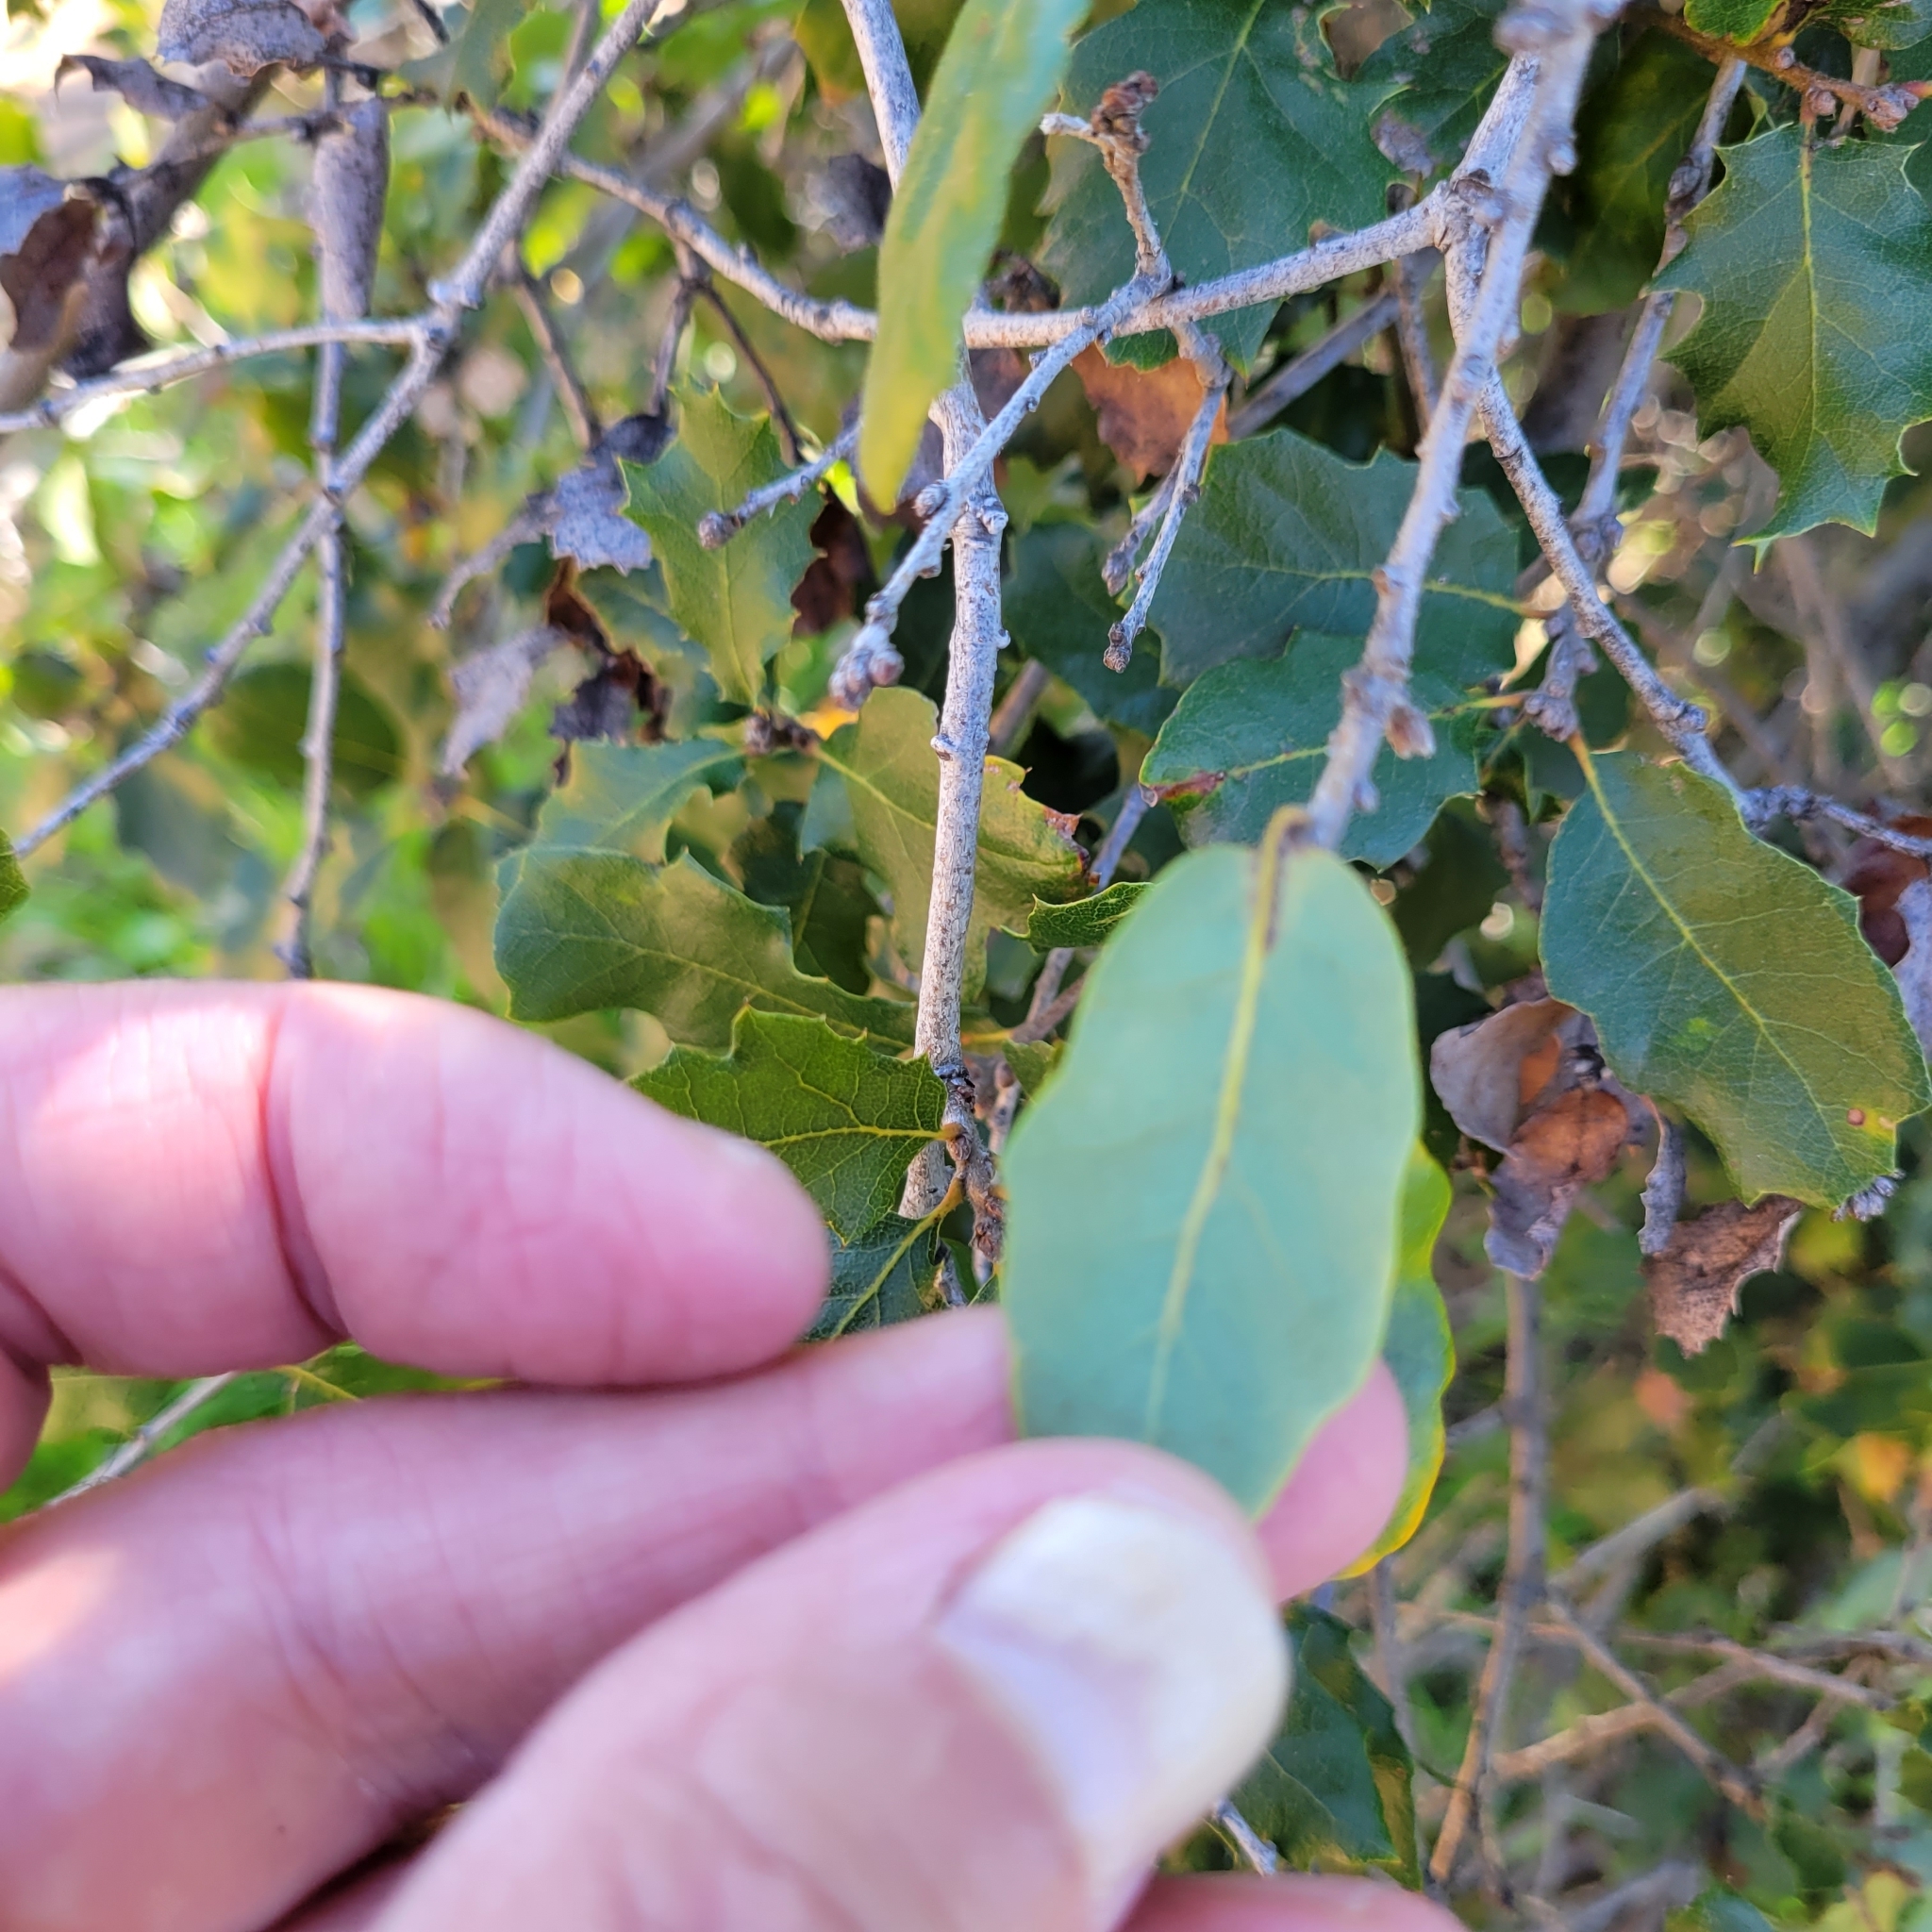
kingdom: Plantae
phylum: Tracheophyta
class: Magnoliopsida
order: Fagales
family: Fagaceae
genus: Quercus
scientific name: Quercus berberidifolia
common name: California scrub oak
